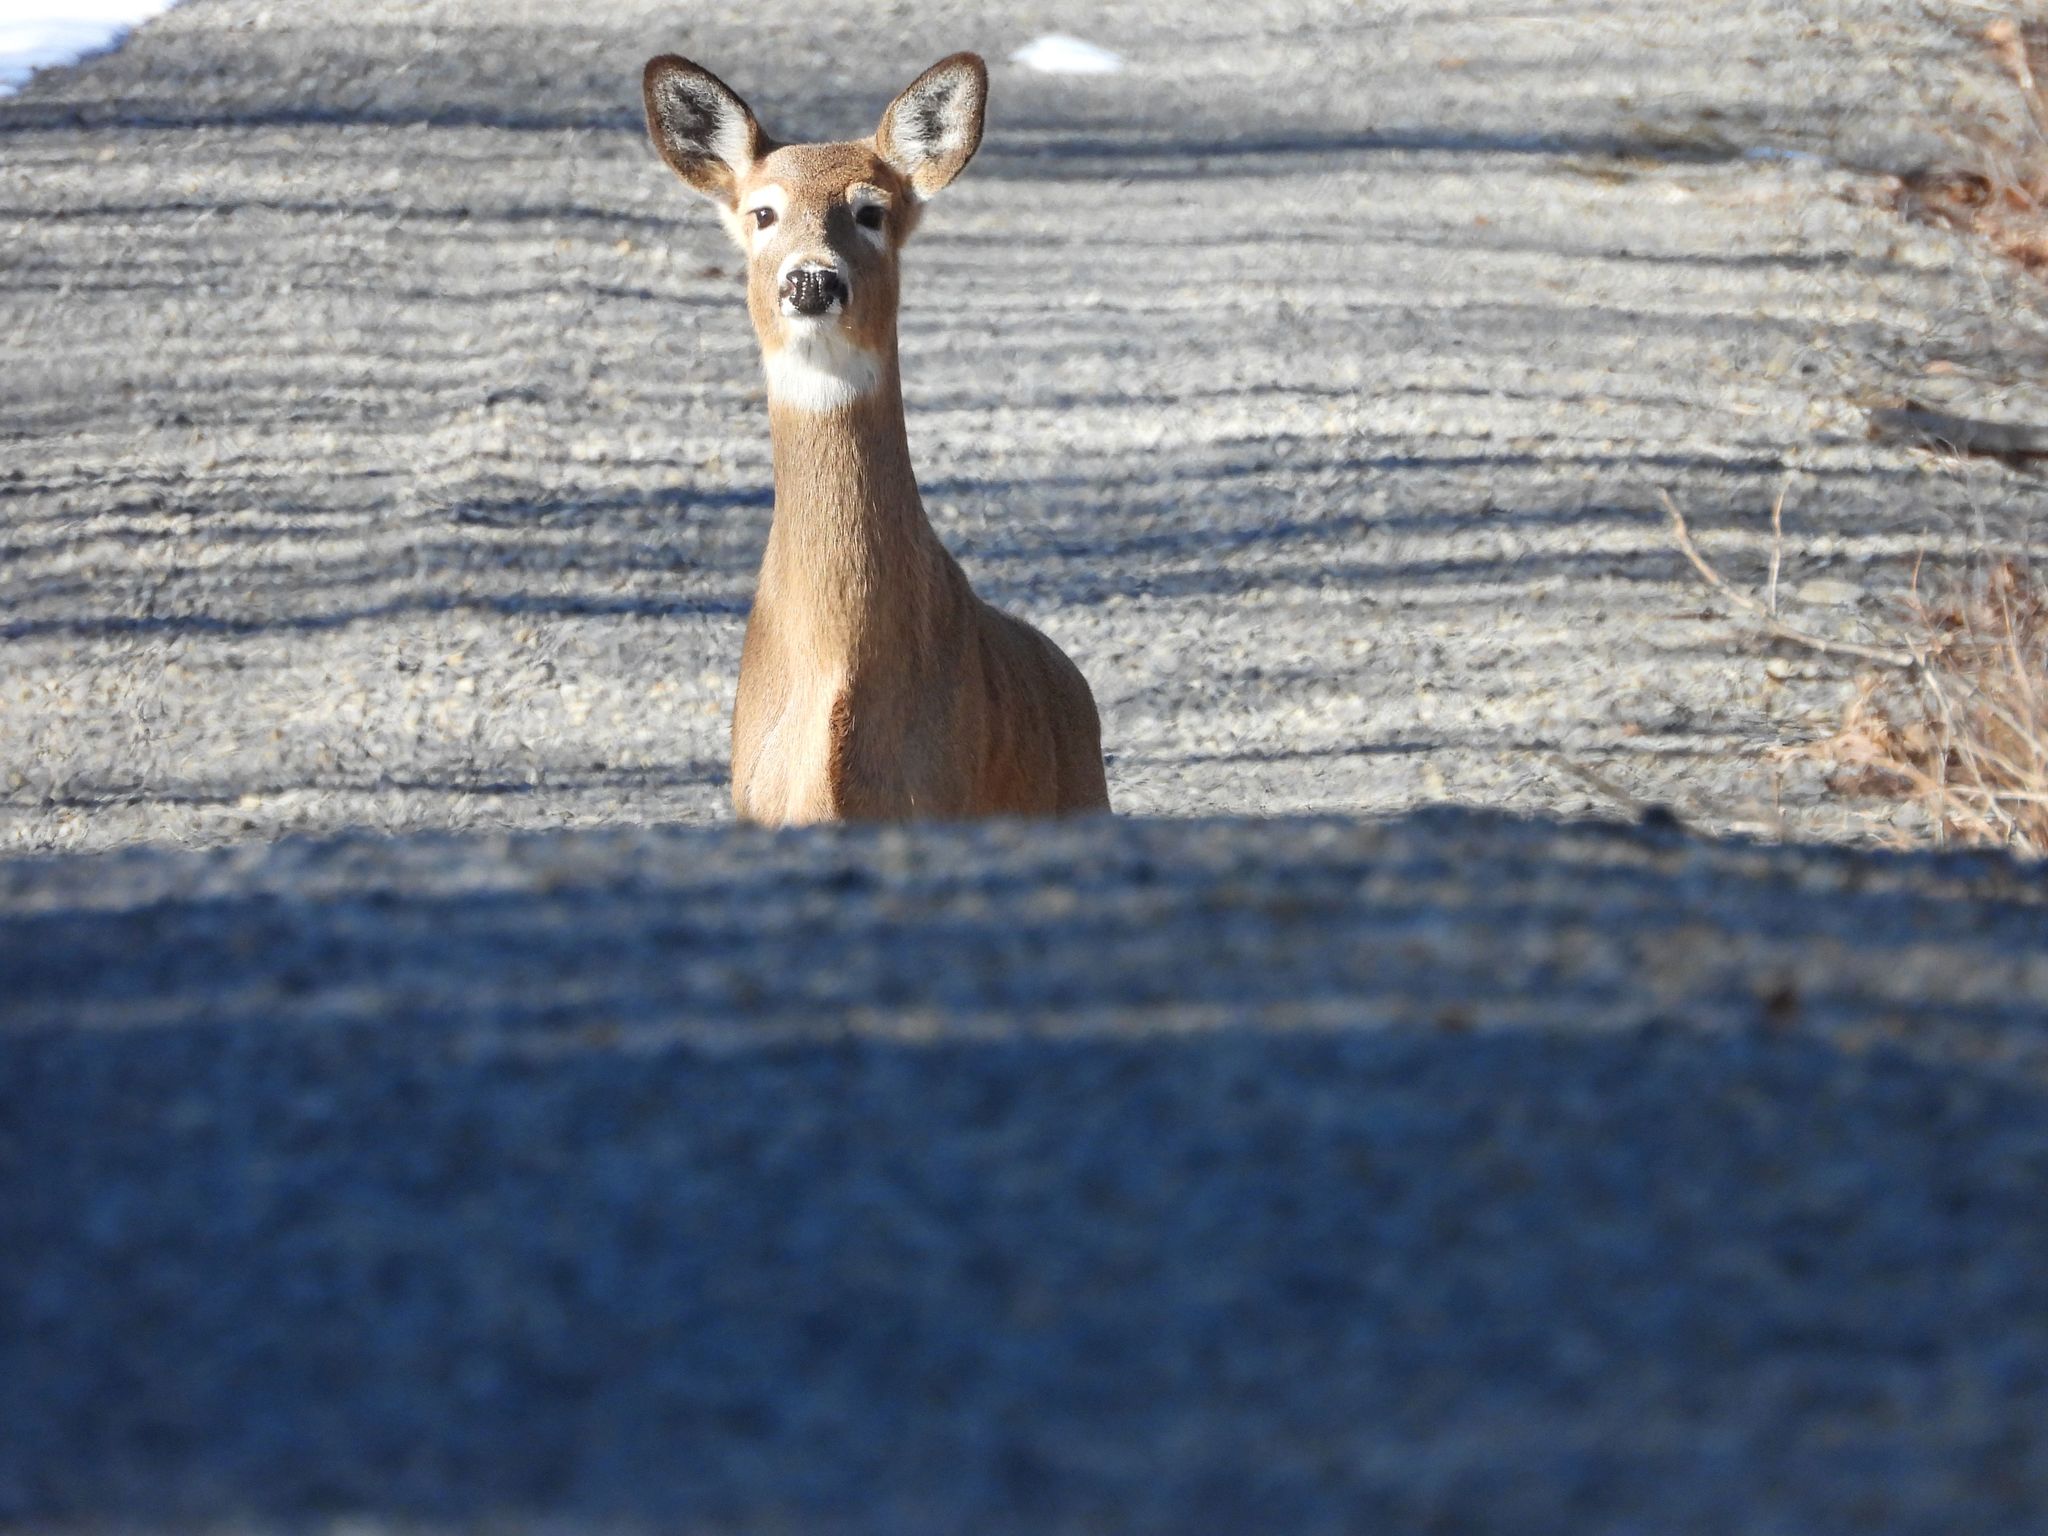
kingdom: Animalia
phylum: Chordata
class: Mammalia
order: Artiodactyla
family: Cervidae
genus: Odocoileus
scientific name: Odocoileus virginianus
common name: White-tailed deer
